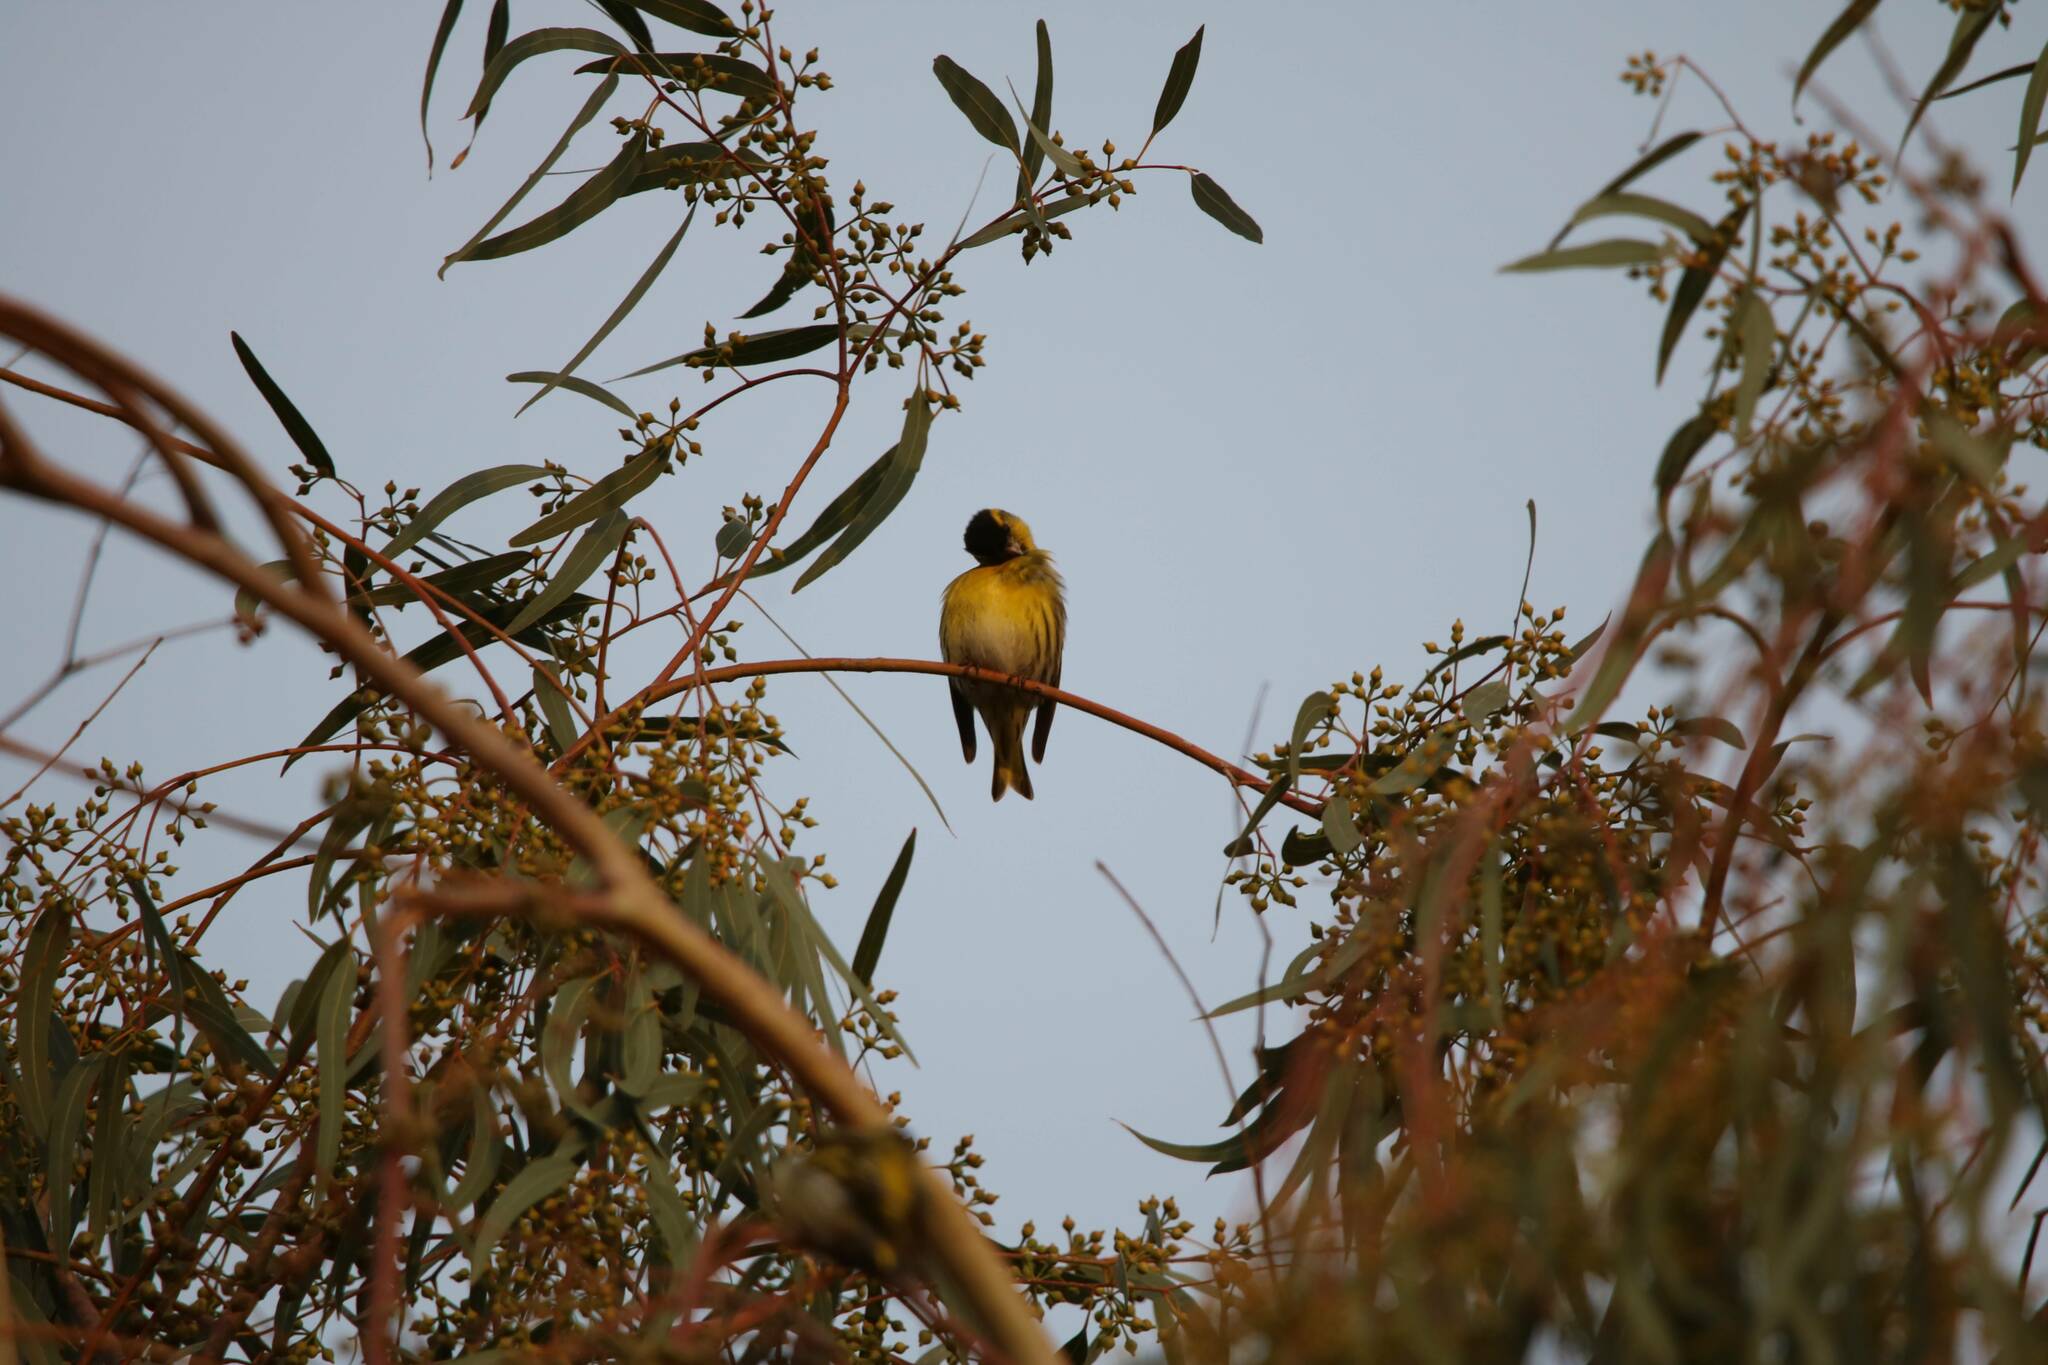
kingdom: Animalia
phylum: Chordata
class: Aves
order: Passeriformes
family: Fringillidae
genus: Spinus
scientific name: Spinus spinus
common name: Eurasian siskin
